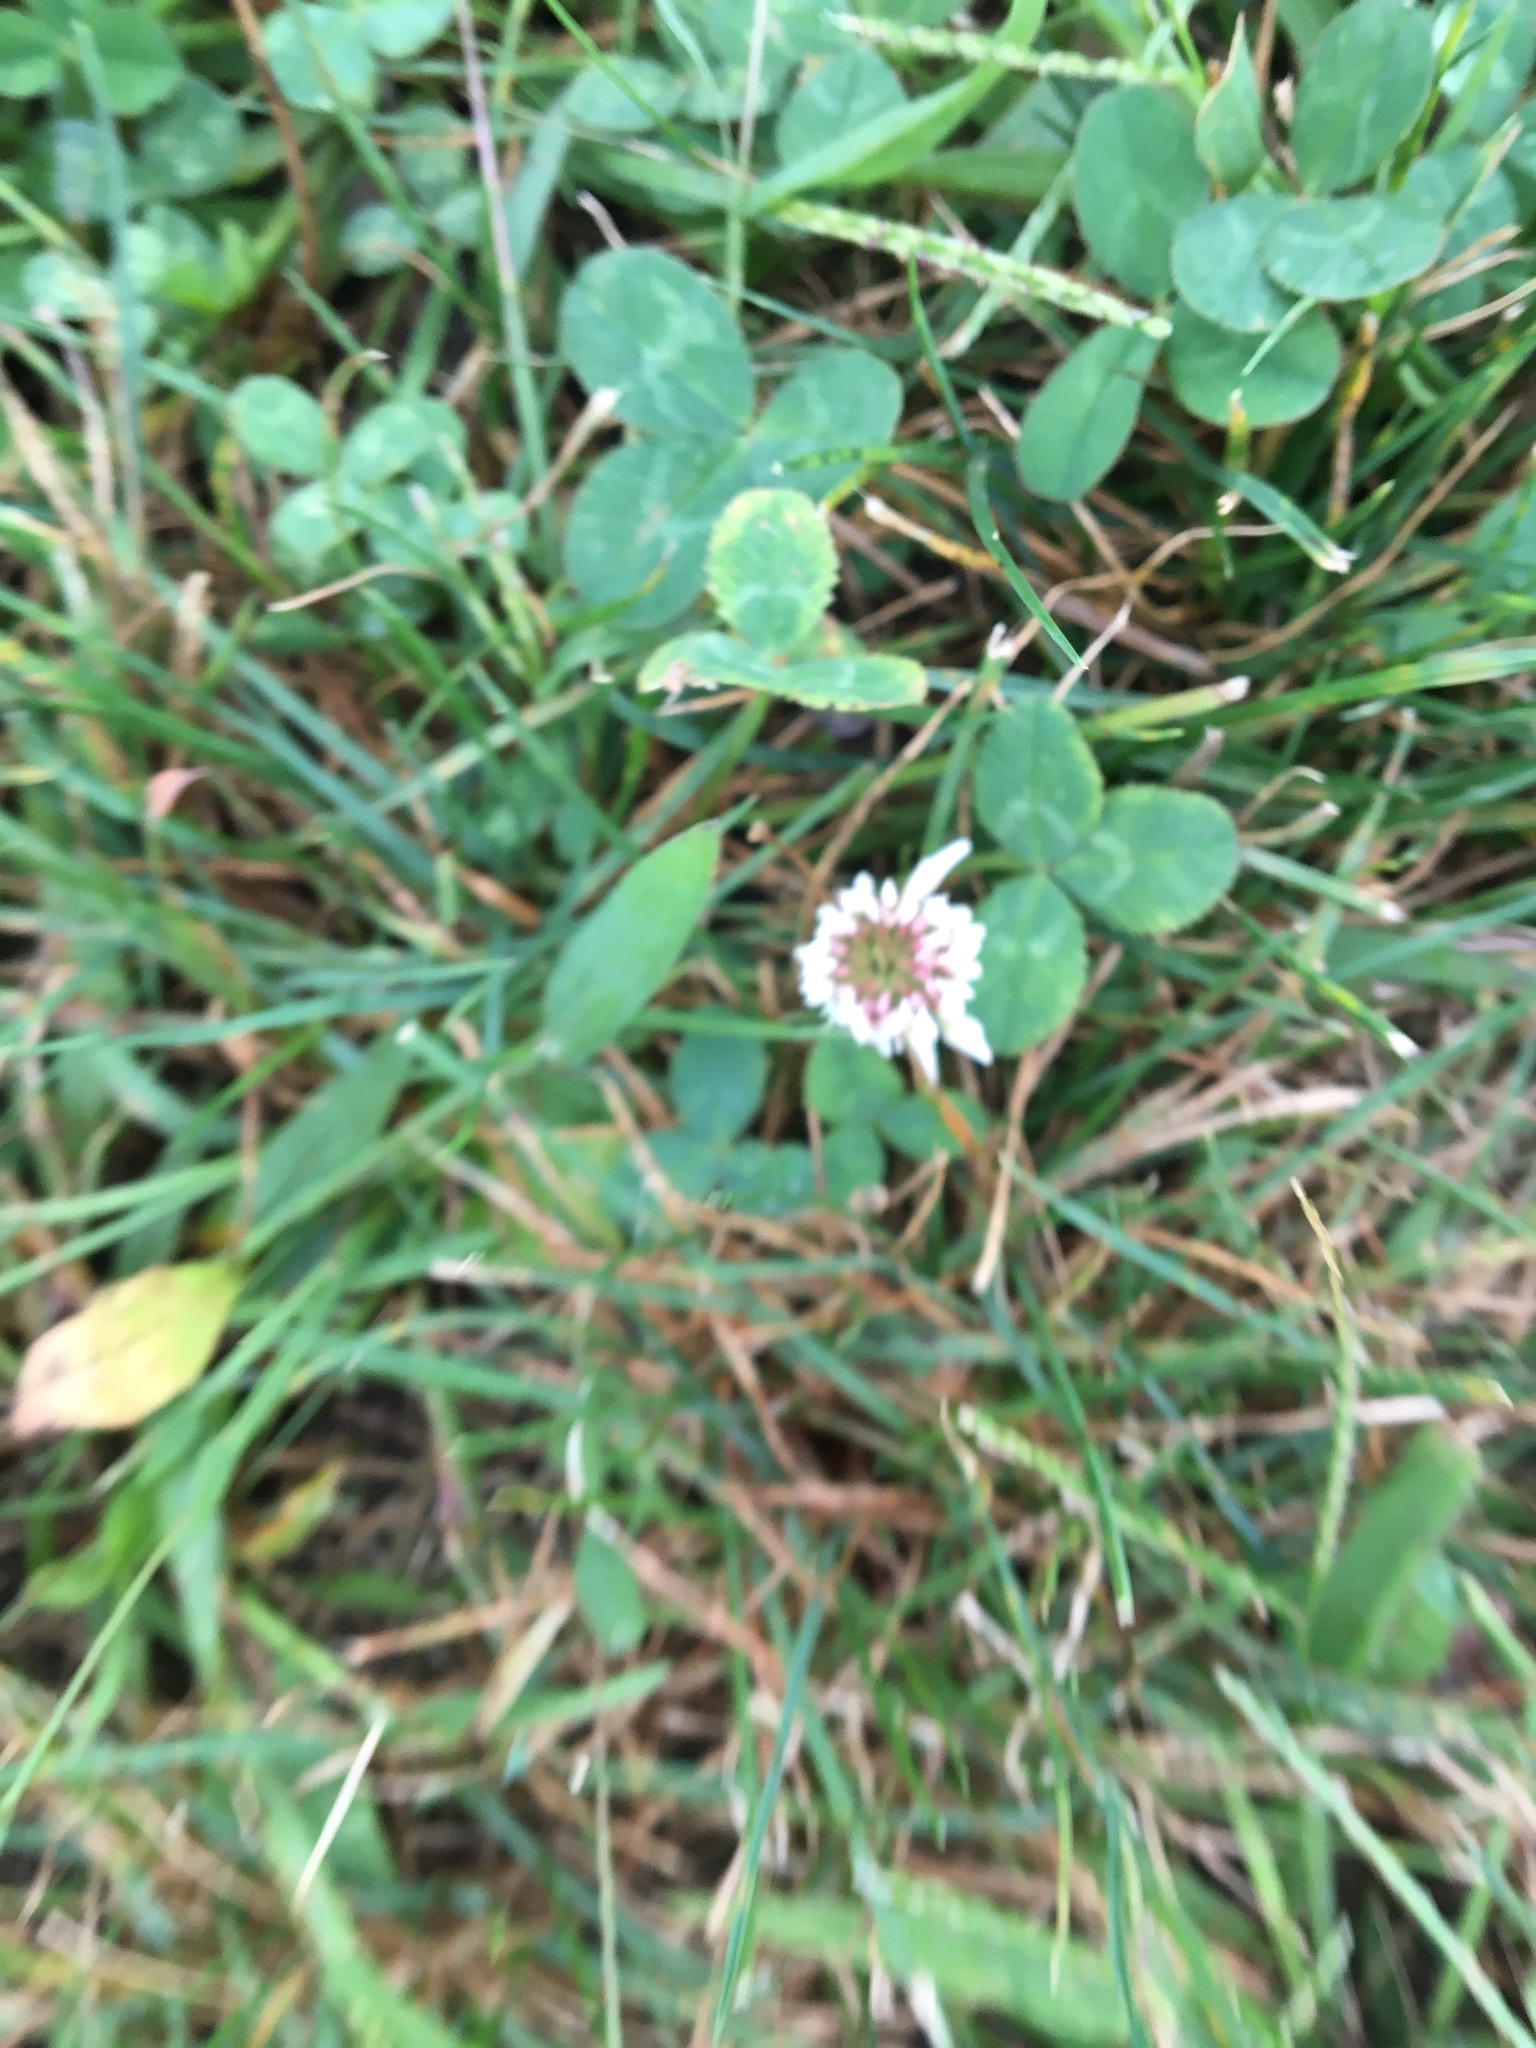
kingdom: Plantae
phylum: Tracheophyta
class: Magnoliopsida
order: Fabales
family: Fabaceae
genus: Trifolium
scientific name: Trifolium repens
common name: White clover
